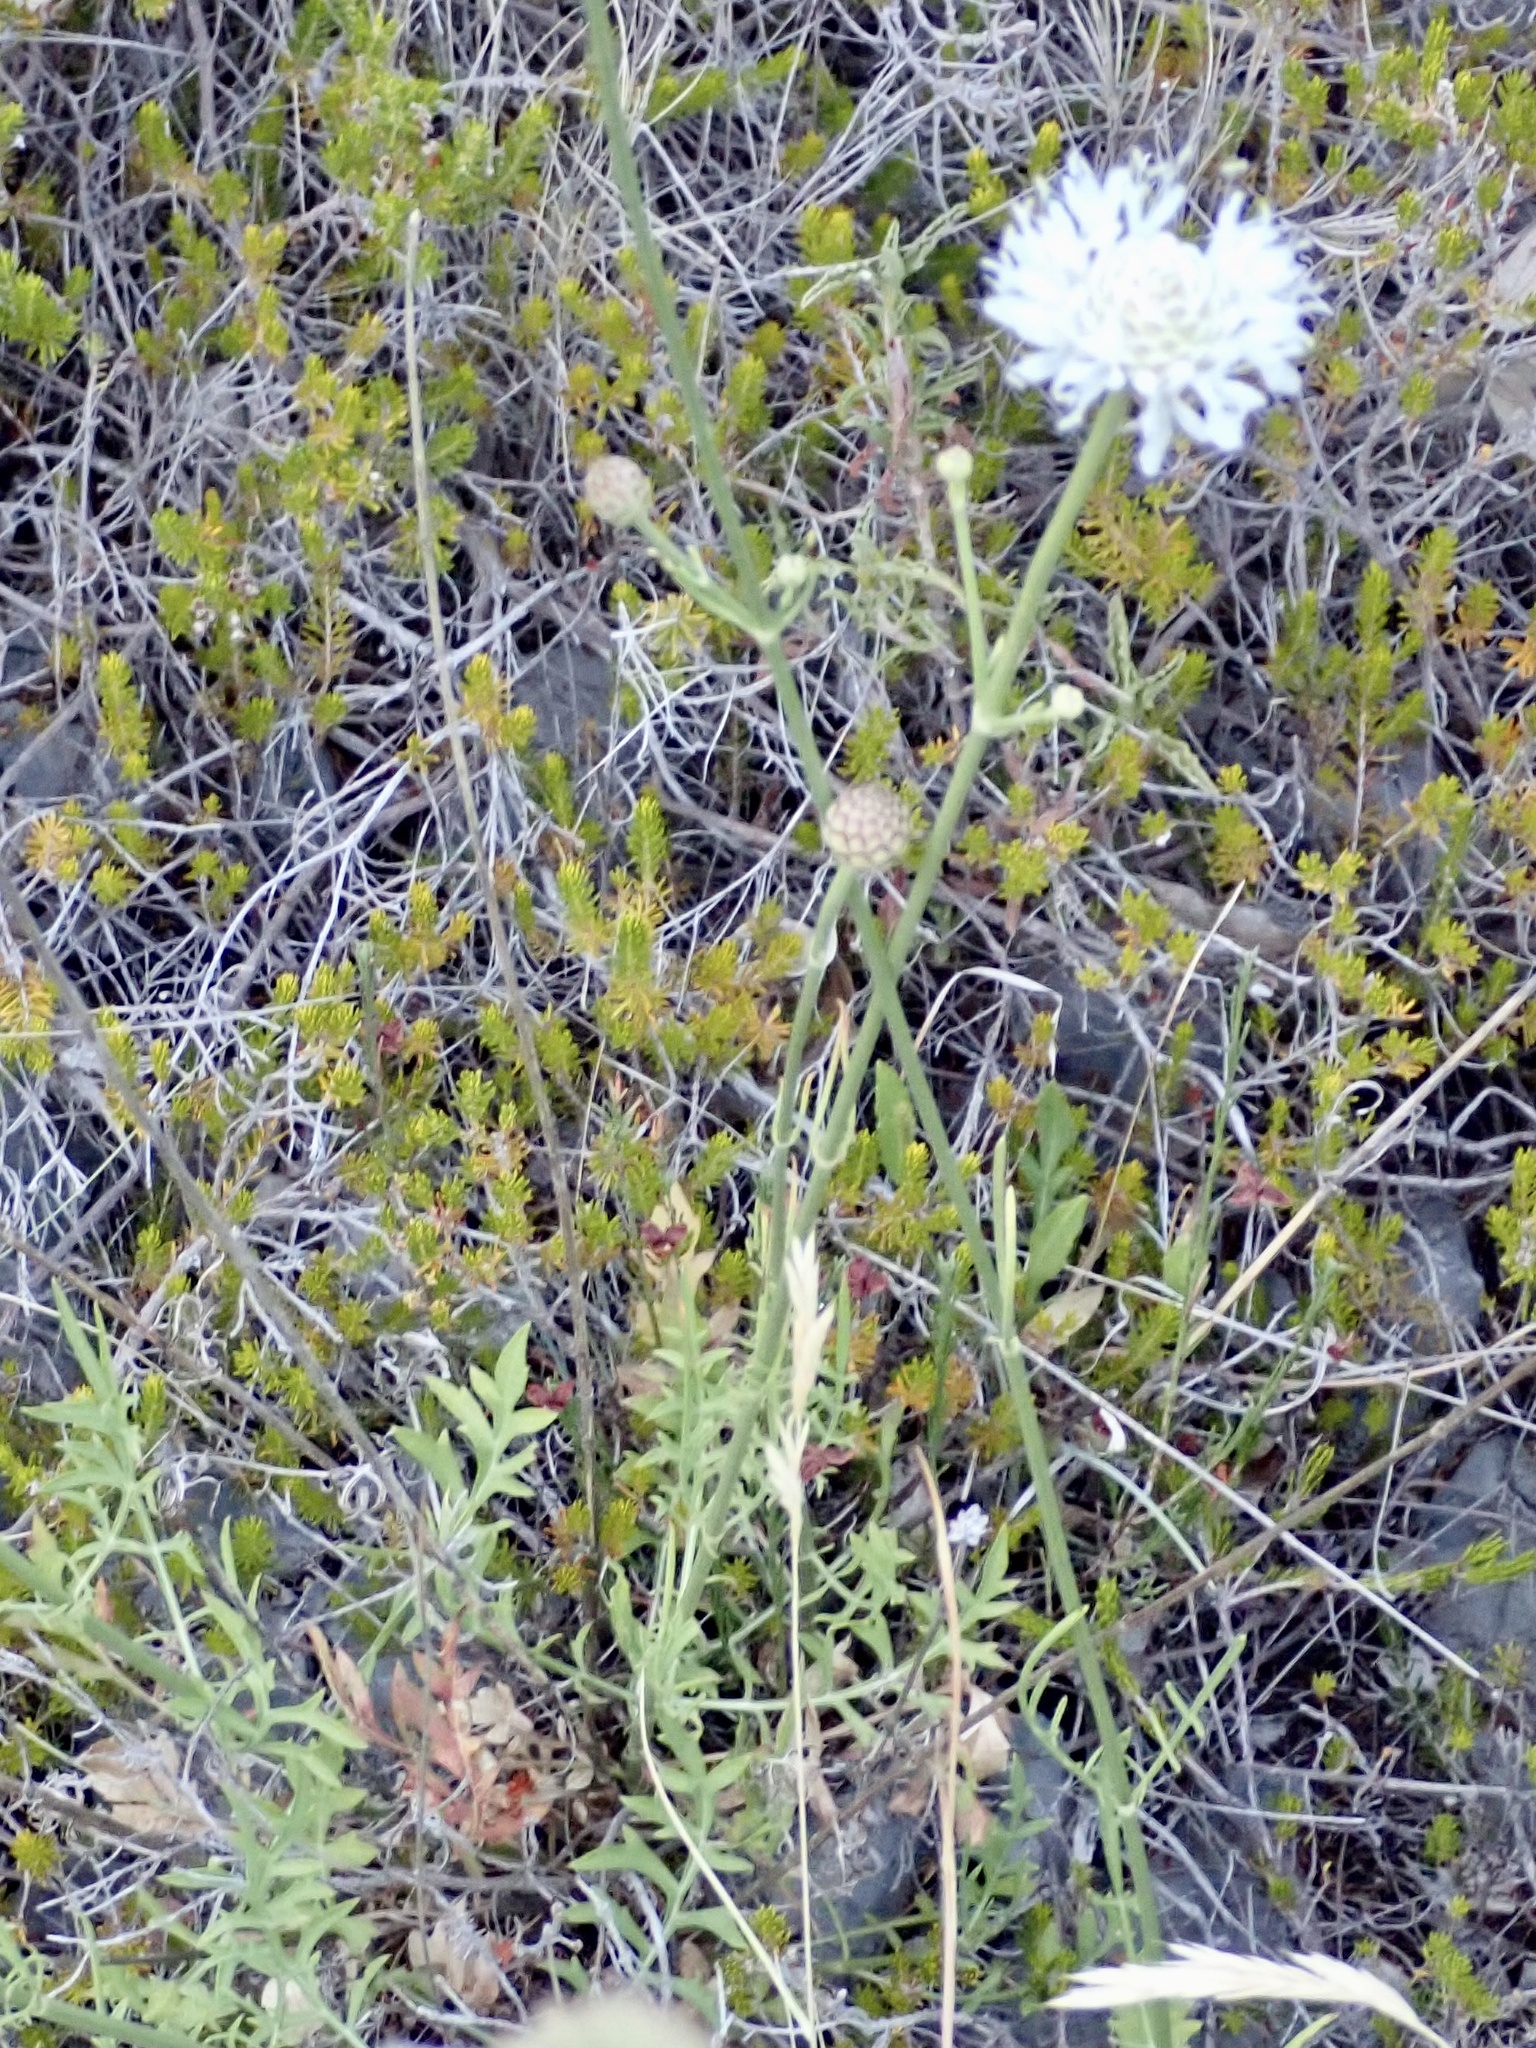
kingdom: Plantae
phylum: Tracheophyta
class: Magnoliopsida
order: Dipsacales
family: Caprifoliaceae
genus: Cephalaria
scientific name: Cephalaria leucantha
